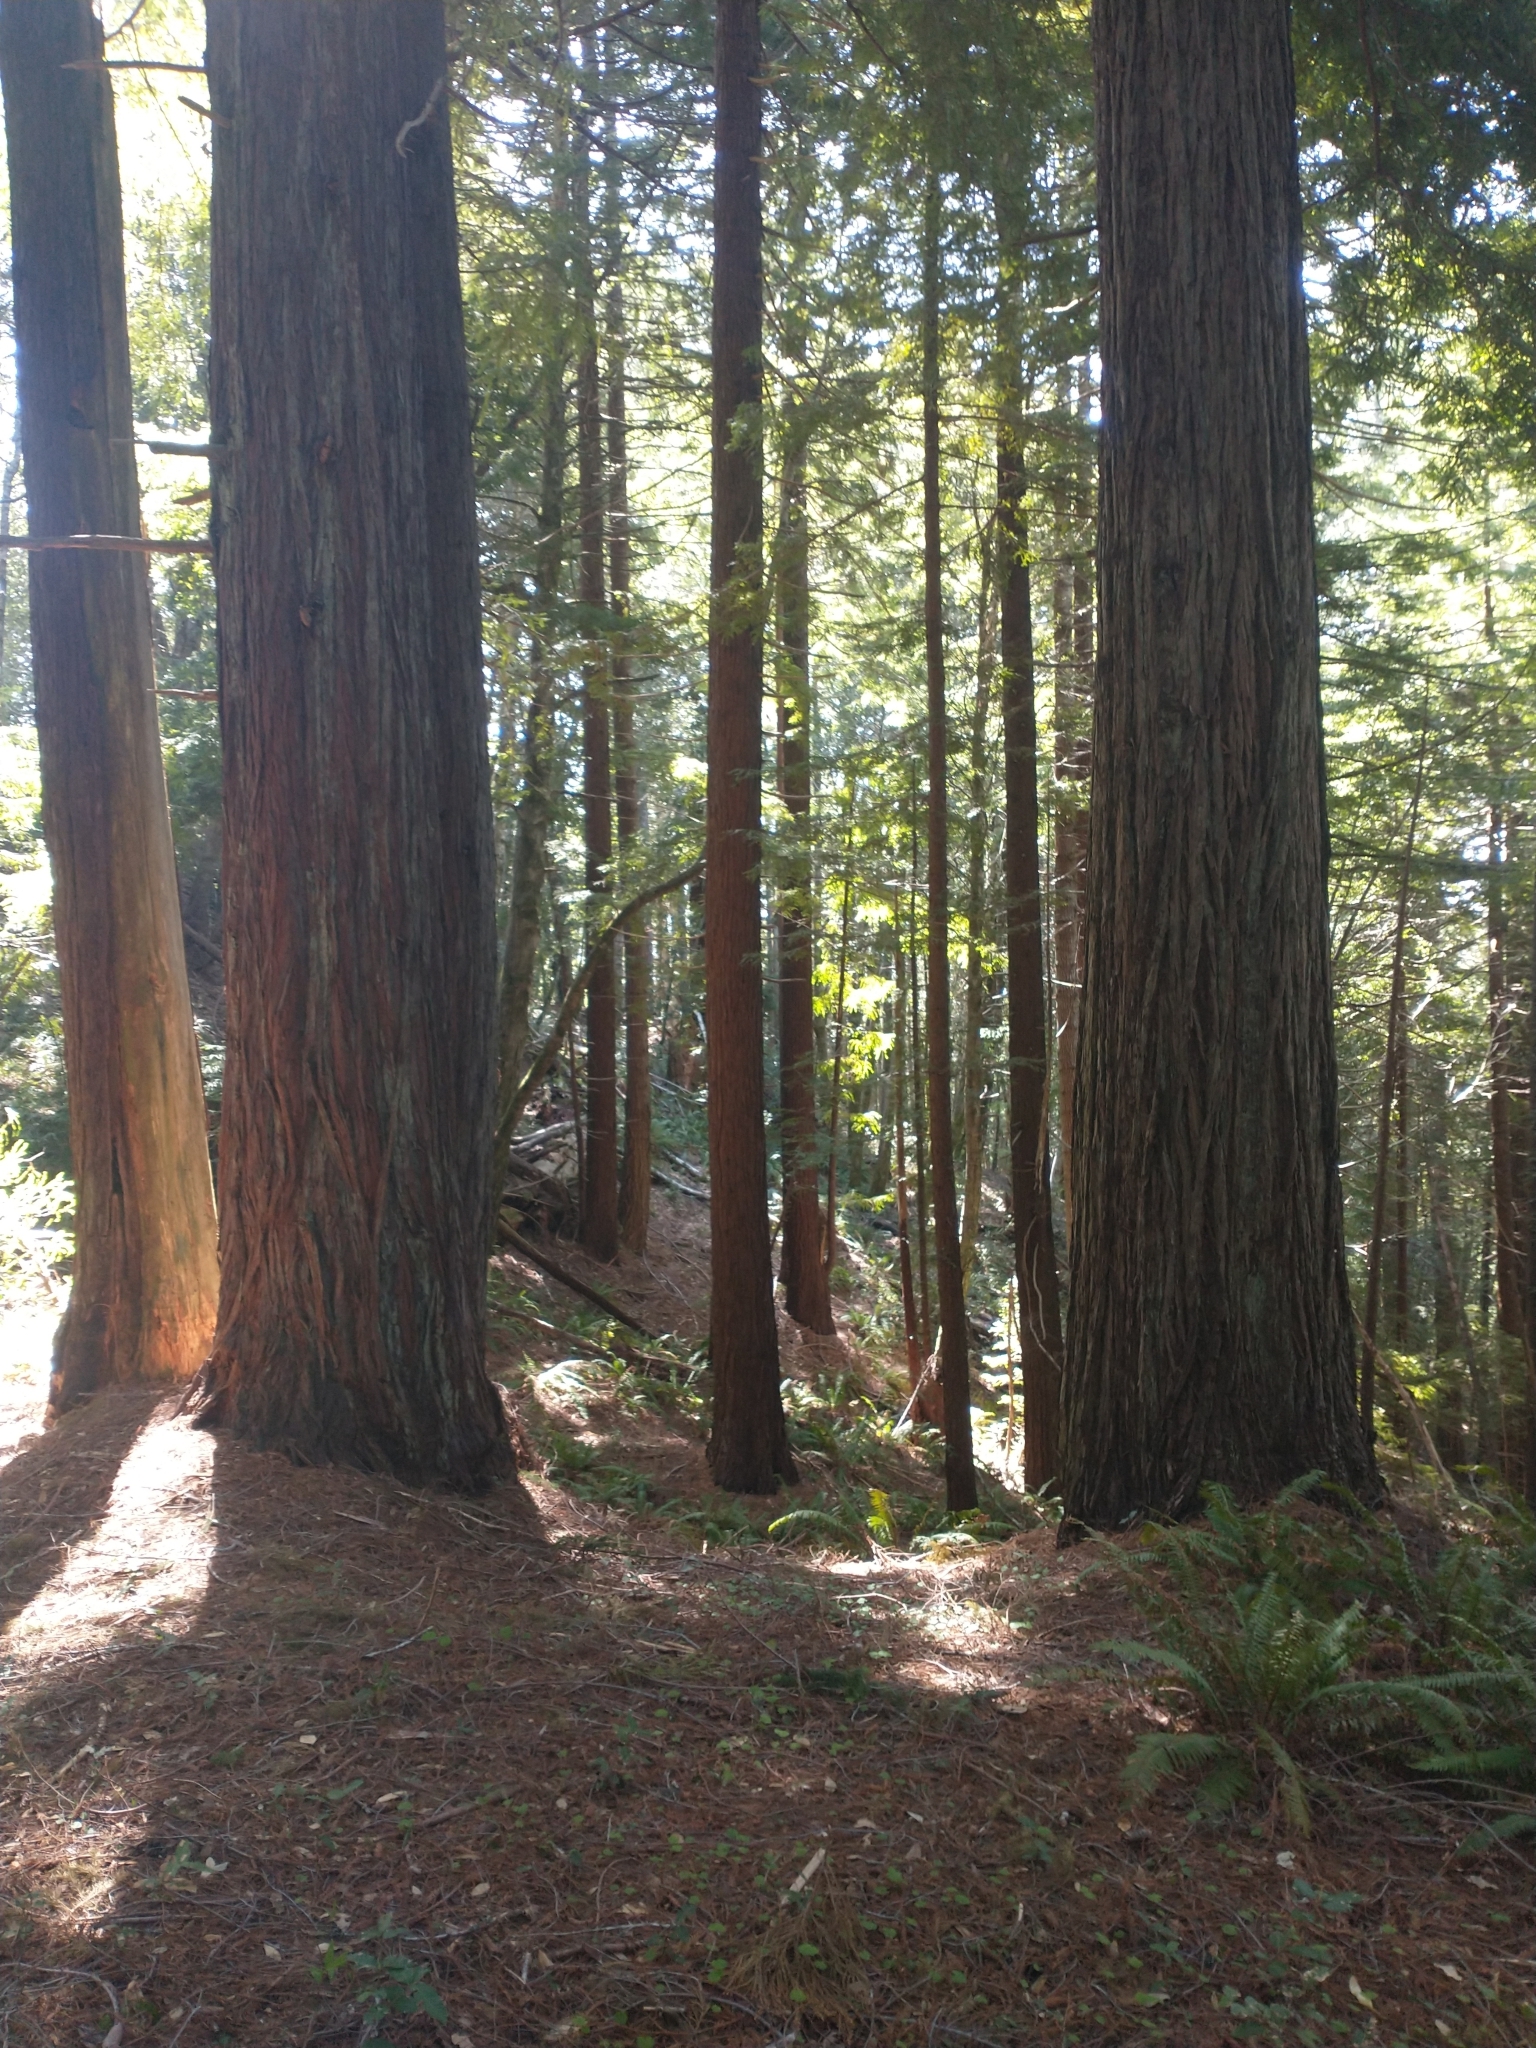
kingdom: Plantae
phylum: Tracheophyta
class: Pinopsida
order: Pinales
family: Cupressaceae
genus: Sequoia
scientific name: Sequoia sempervirens
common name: Coast redwood
